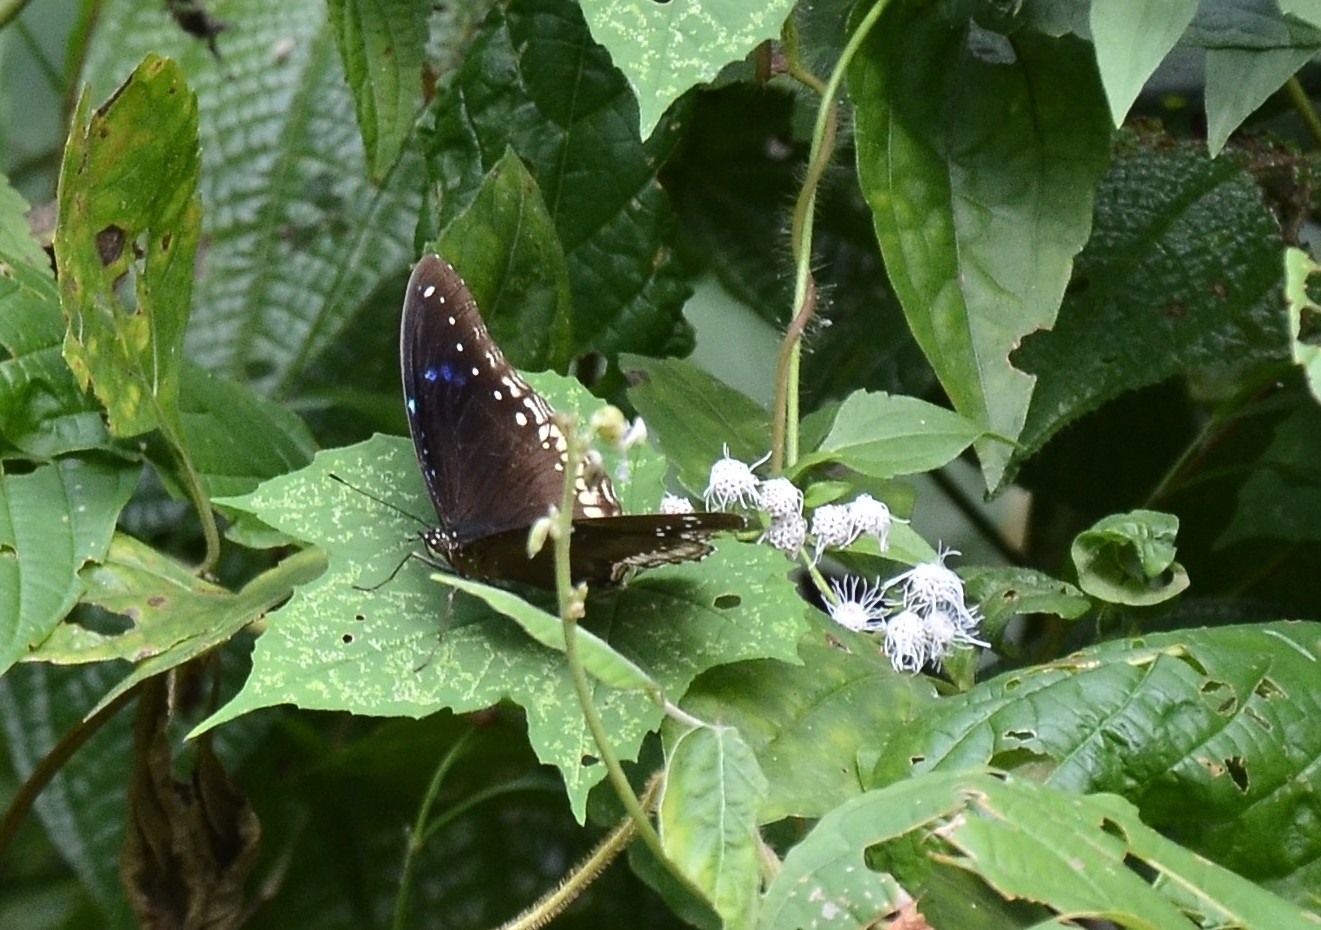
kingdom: Animalia
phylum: Arthropoda
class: Insecta
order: Lepidoptera
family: Nymphalidae
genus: Hypolimnas
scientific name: Hypolimnas bolina
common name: Great eggfly
